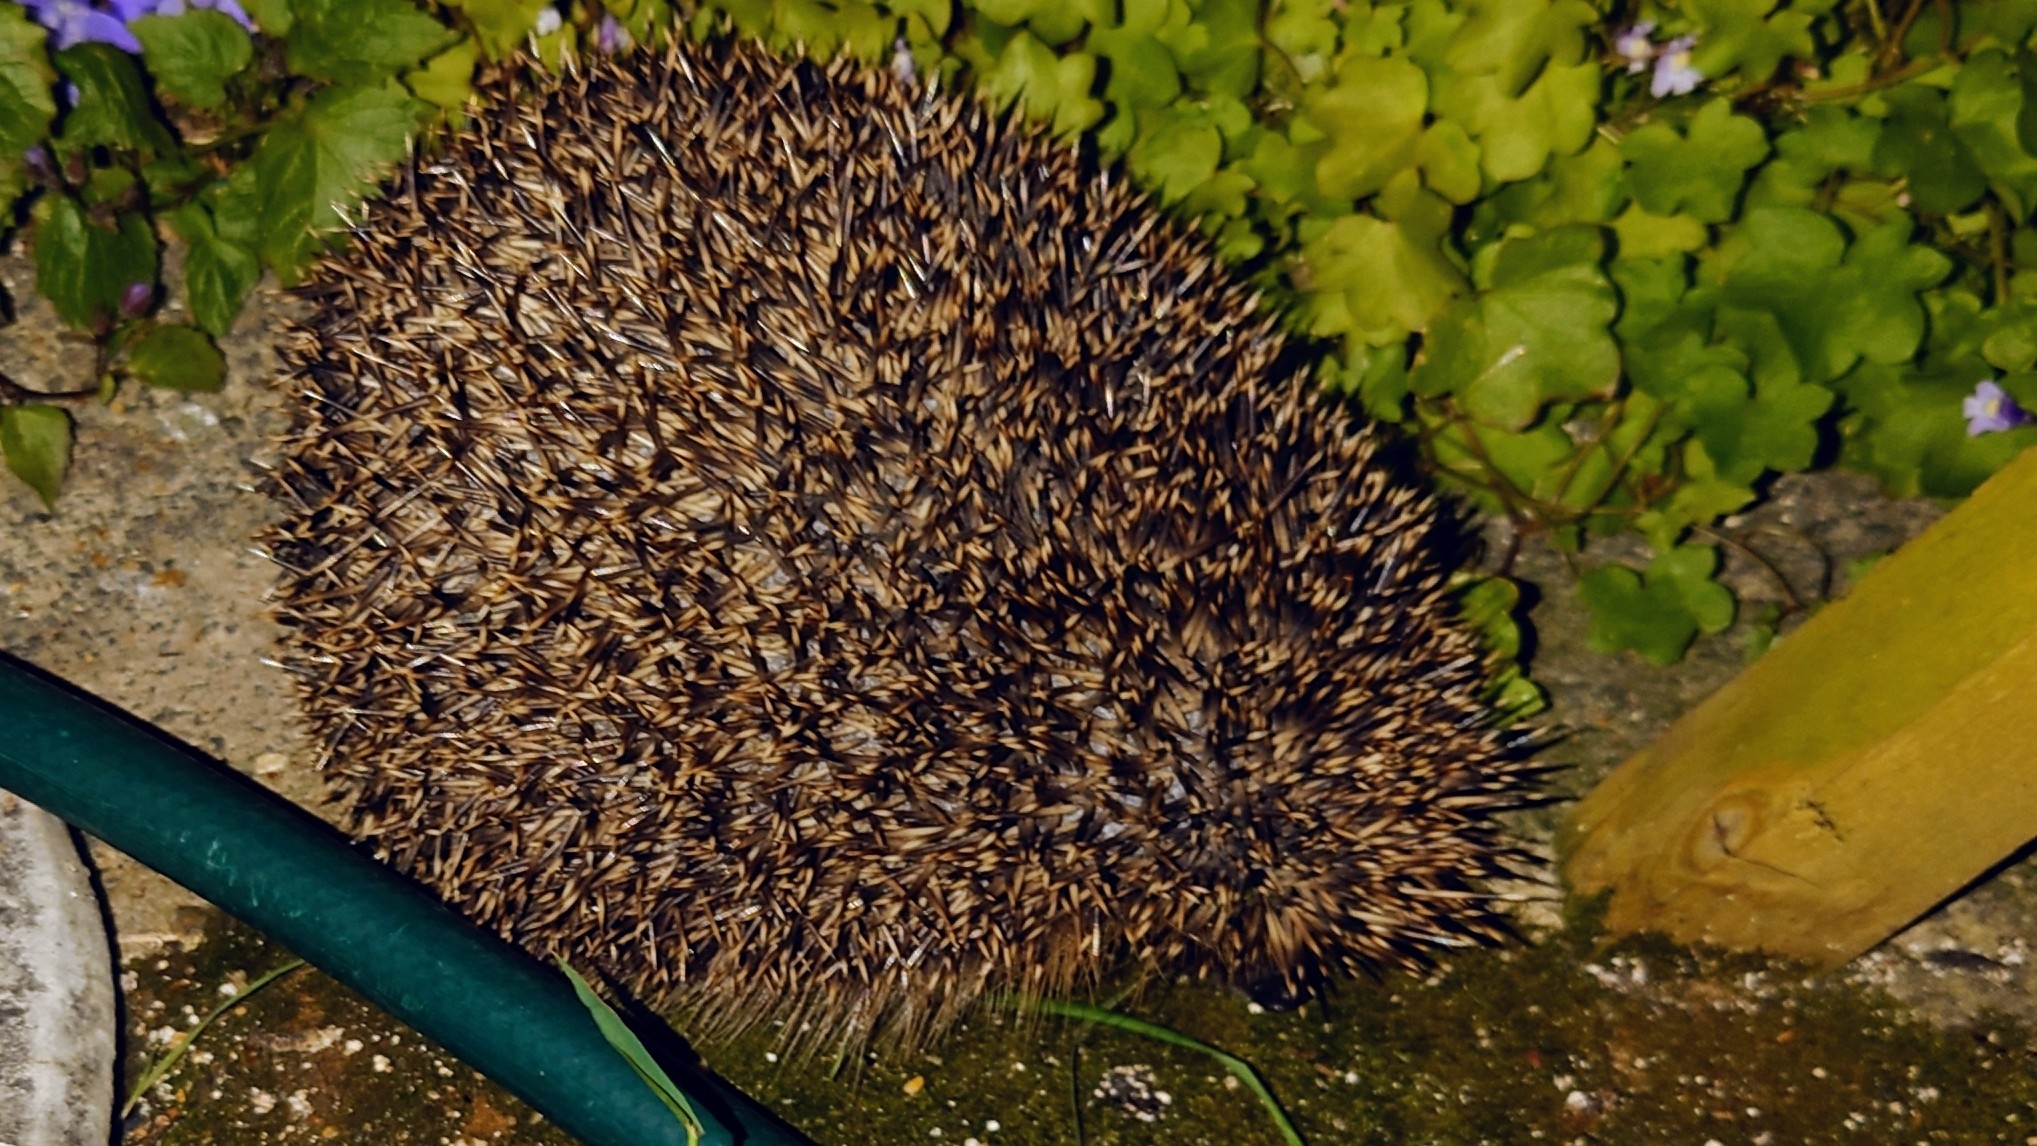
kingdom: Animalia
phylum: Chordata
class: Mammalia
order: Erinaceomorpha
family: Erinaceidae
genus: Erinaceus
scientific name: Erinaceus europaeus
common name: West european hedgehog
